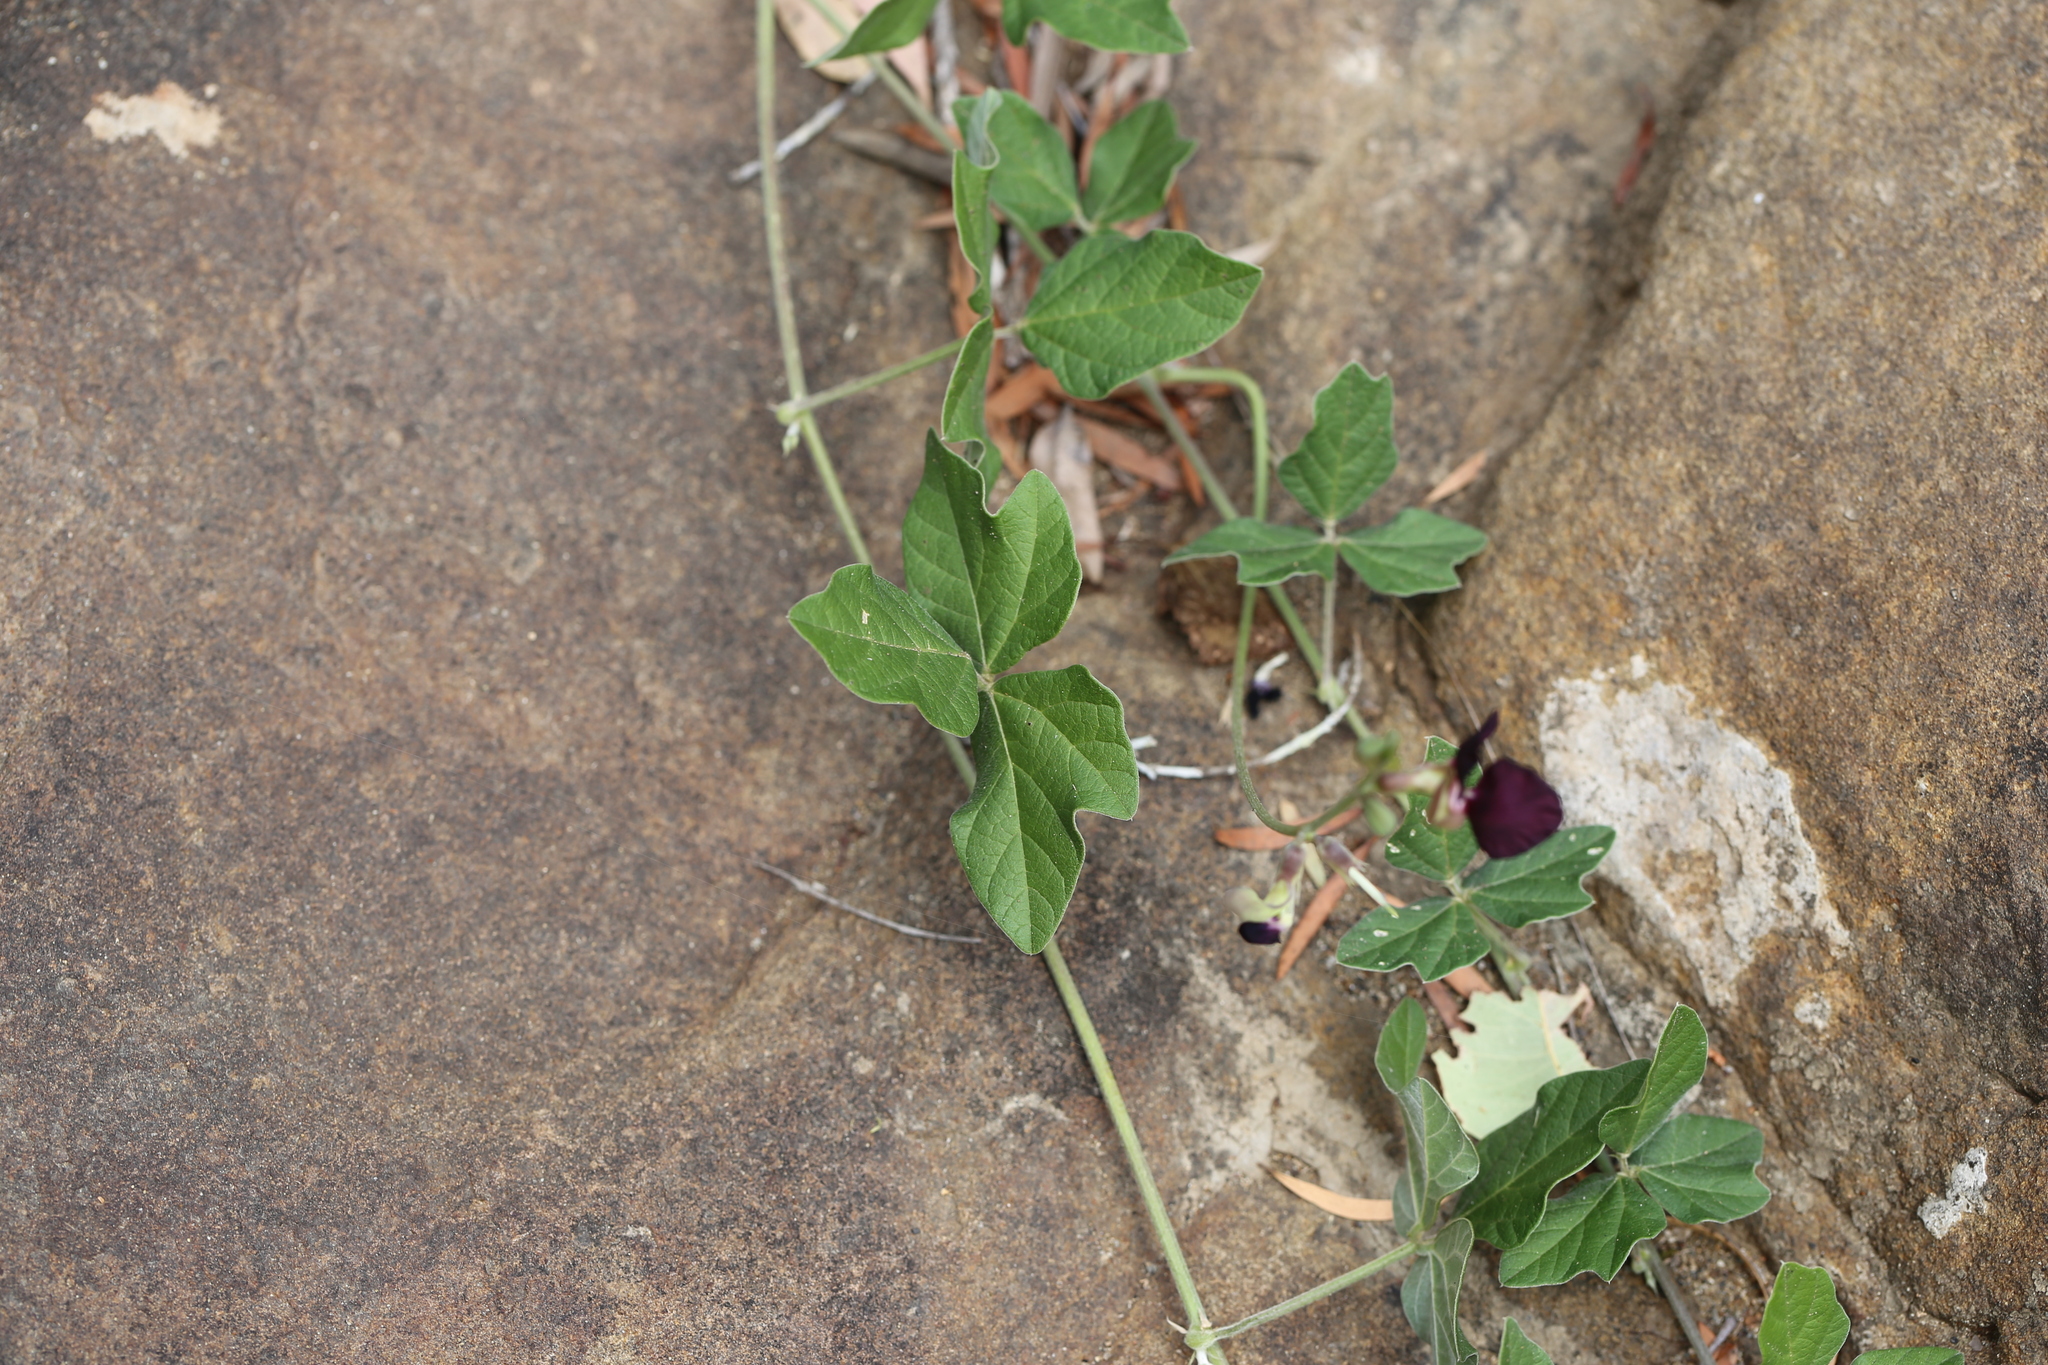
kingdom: Plantae
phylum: Tracheophyta
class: Magnoliopsida
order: Fabales
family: Fabaceae
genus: Macroptilium
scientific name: Macroptilium atropurpureum
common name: Purple bushbean
